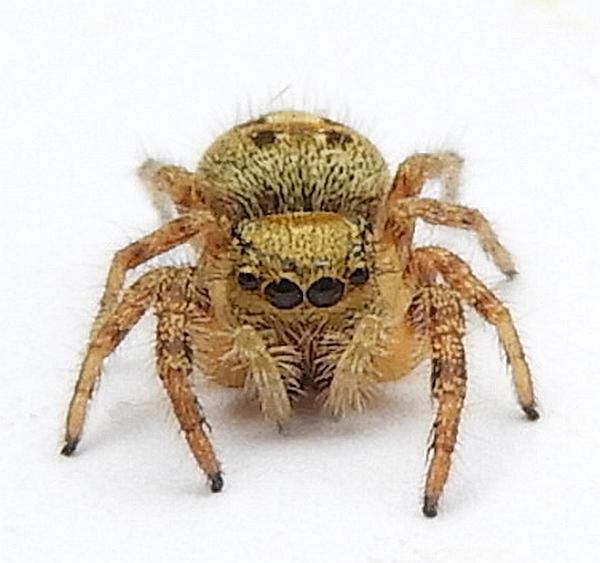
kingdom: Animalia
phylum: Arthropoda
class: Arachnida
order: Araneae
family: Salticidae
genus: Phidippus
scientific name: Phidippus princeps
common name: Grayish jumping spider
